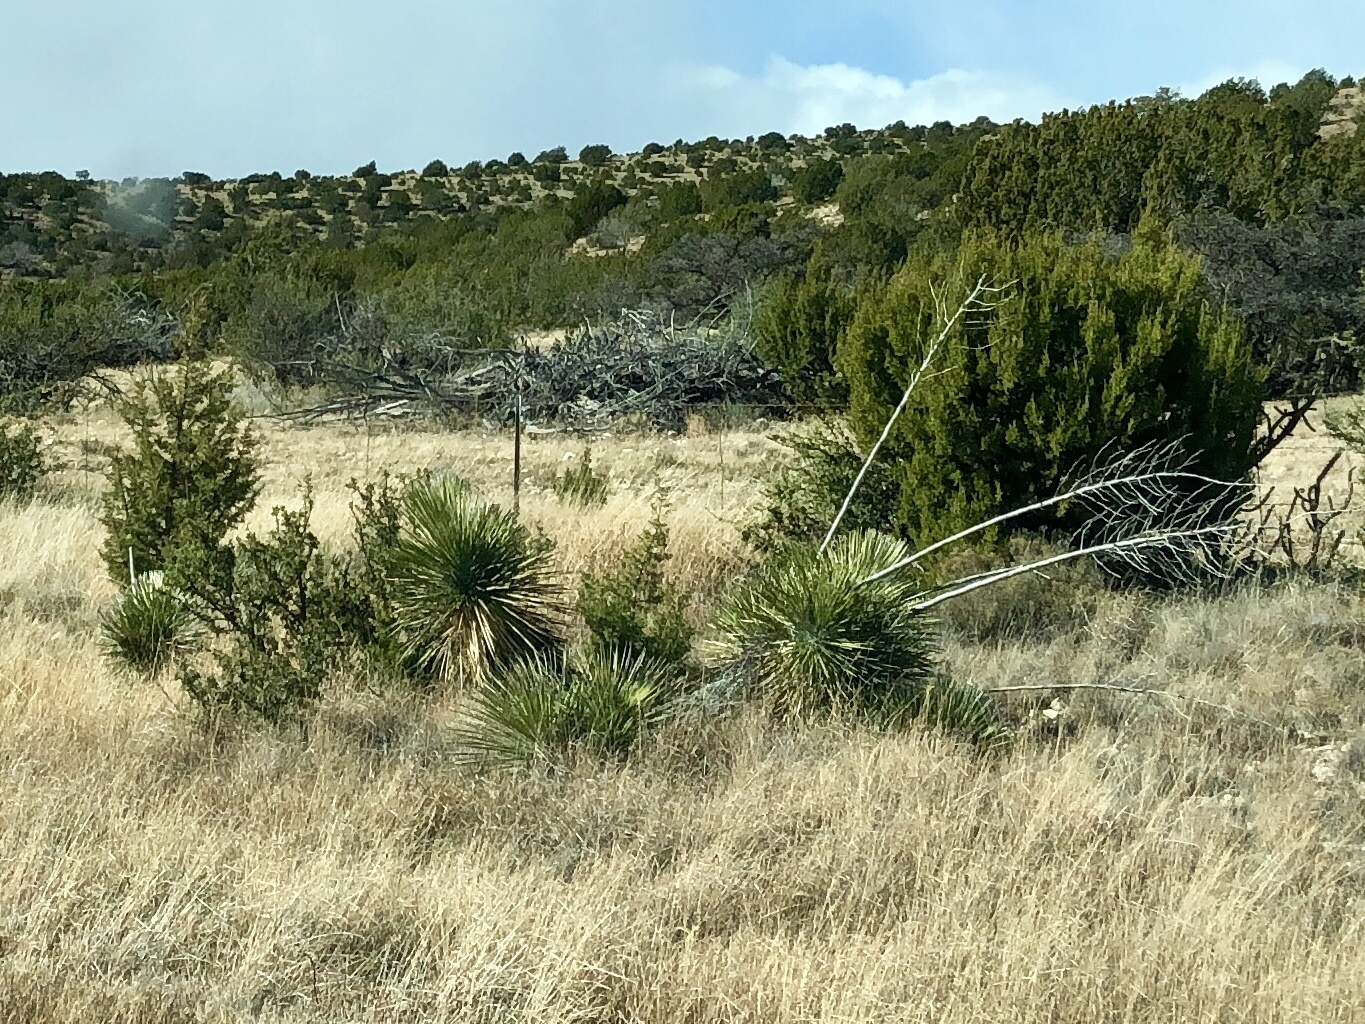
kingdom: Plantae
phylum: Tracheophyta
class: Liliopsida
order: Asparagales
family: Asparagaceae
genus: Yucca
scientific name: Yucca elata
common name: Palmella
